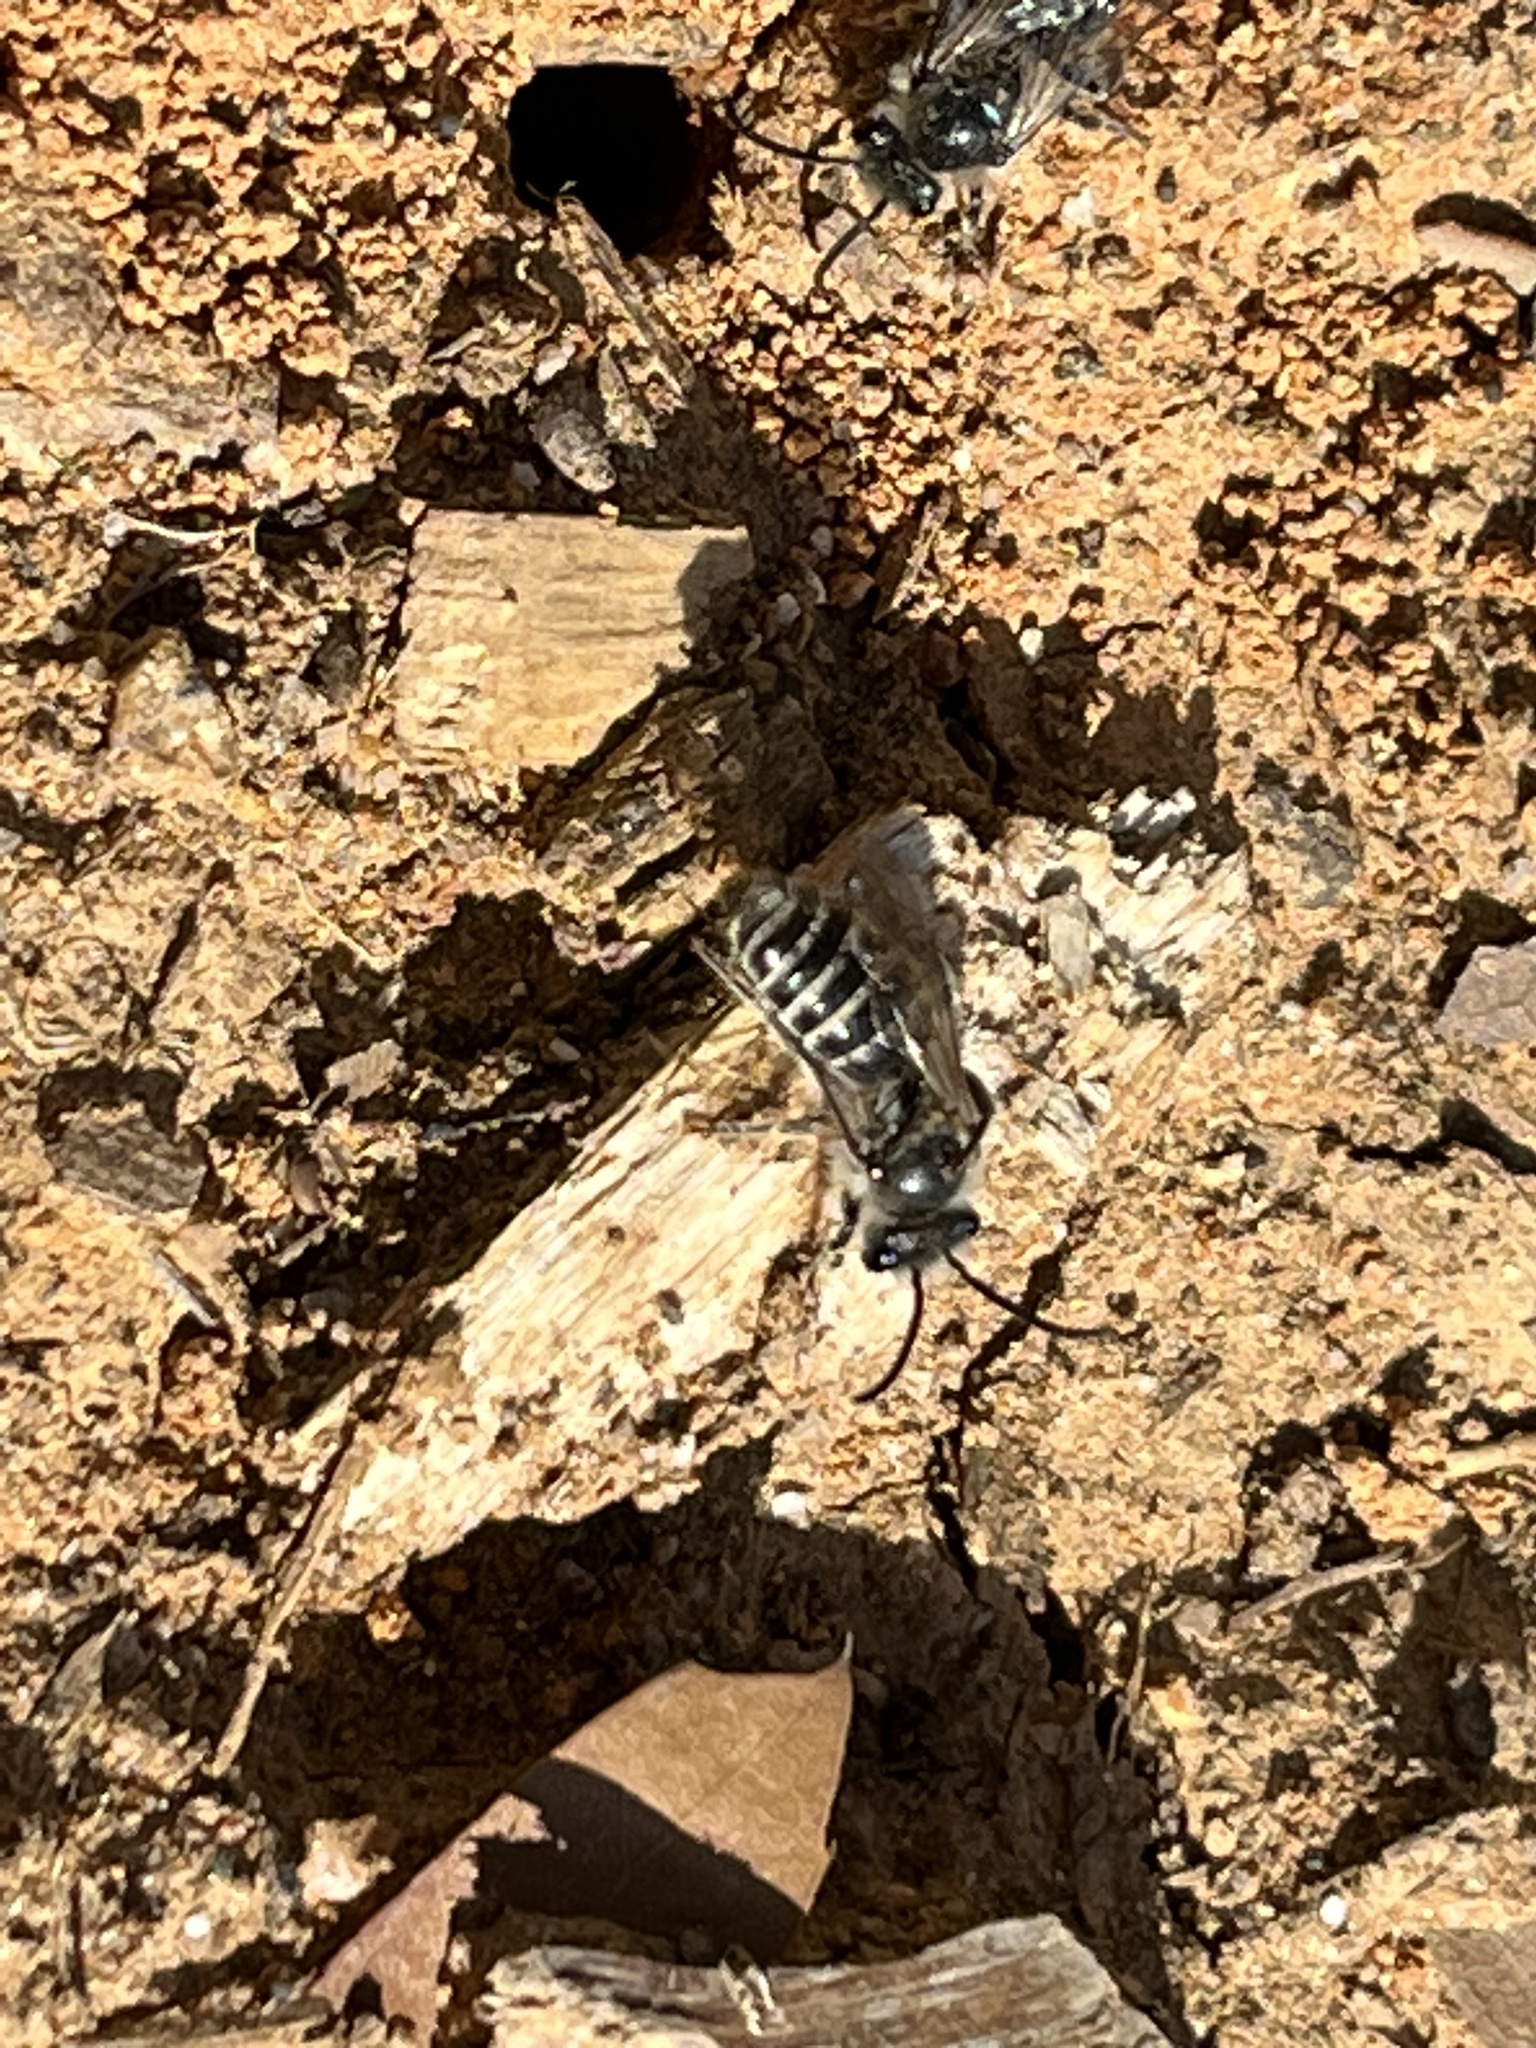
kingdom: Animalia
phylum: Arthropoda
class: Insecta
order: Hymenoptera
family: Colletidae
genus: Colletes
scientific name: Colletes inaequalis
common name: Unequal cellophane bee
